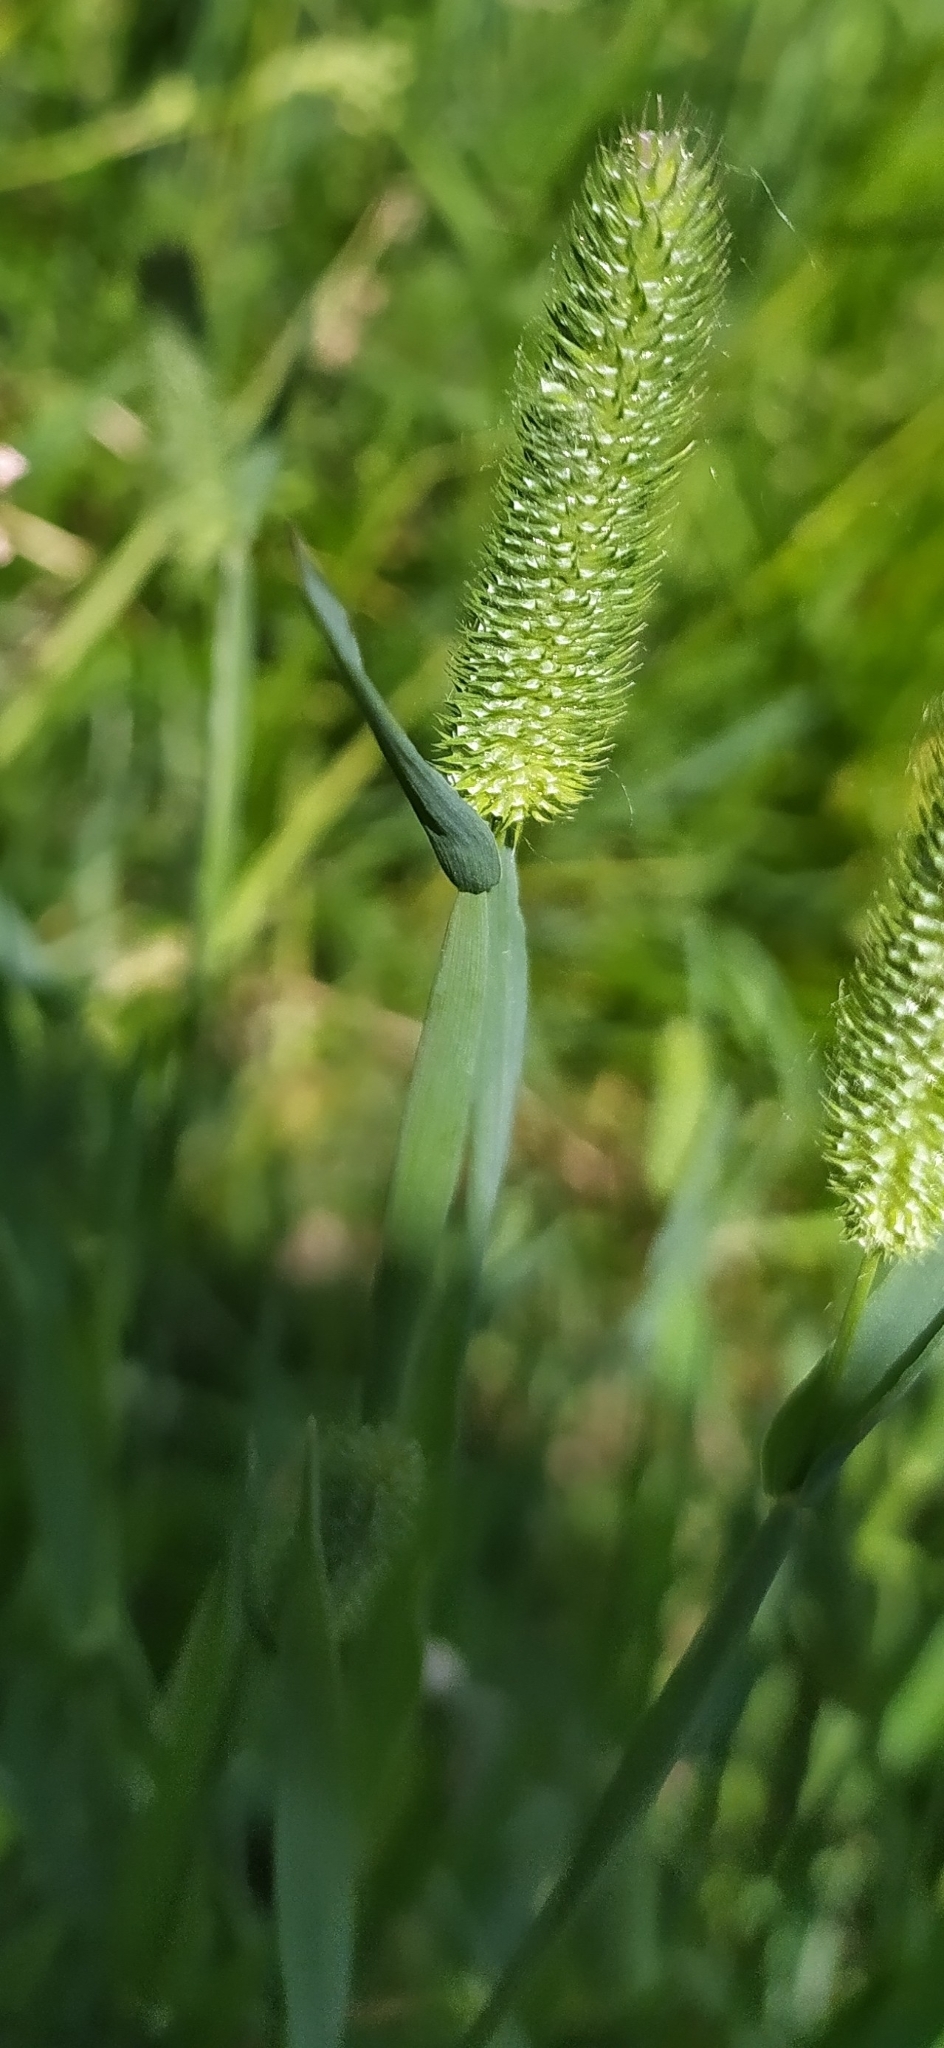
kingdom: Plantae
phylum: Tracheophyta
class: Liliopsida
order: Poales
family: Poaceae
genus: Phleum
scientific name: Phleum pratense
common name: Timothy grass
